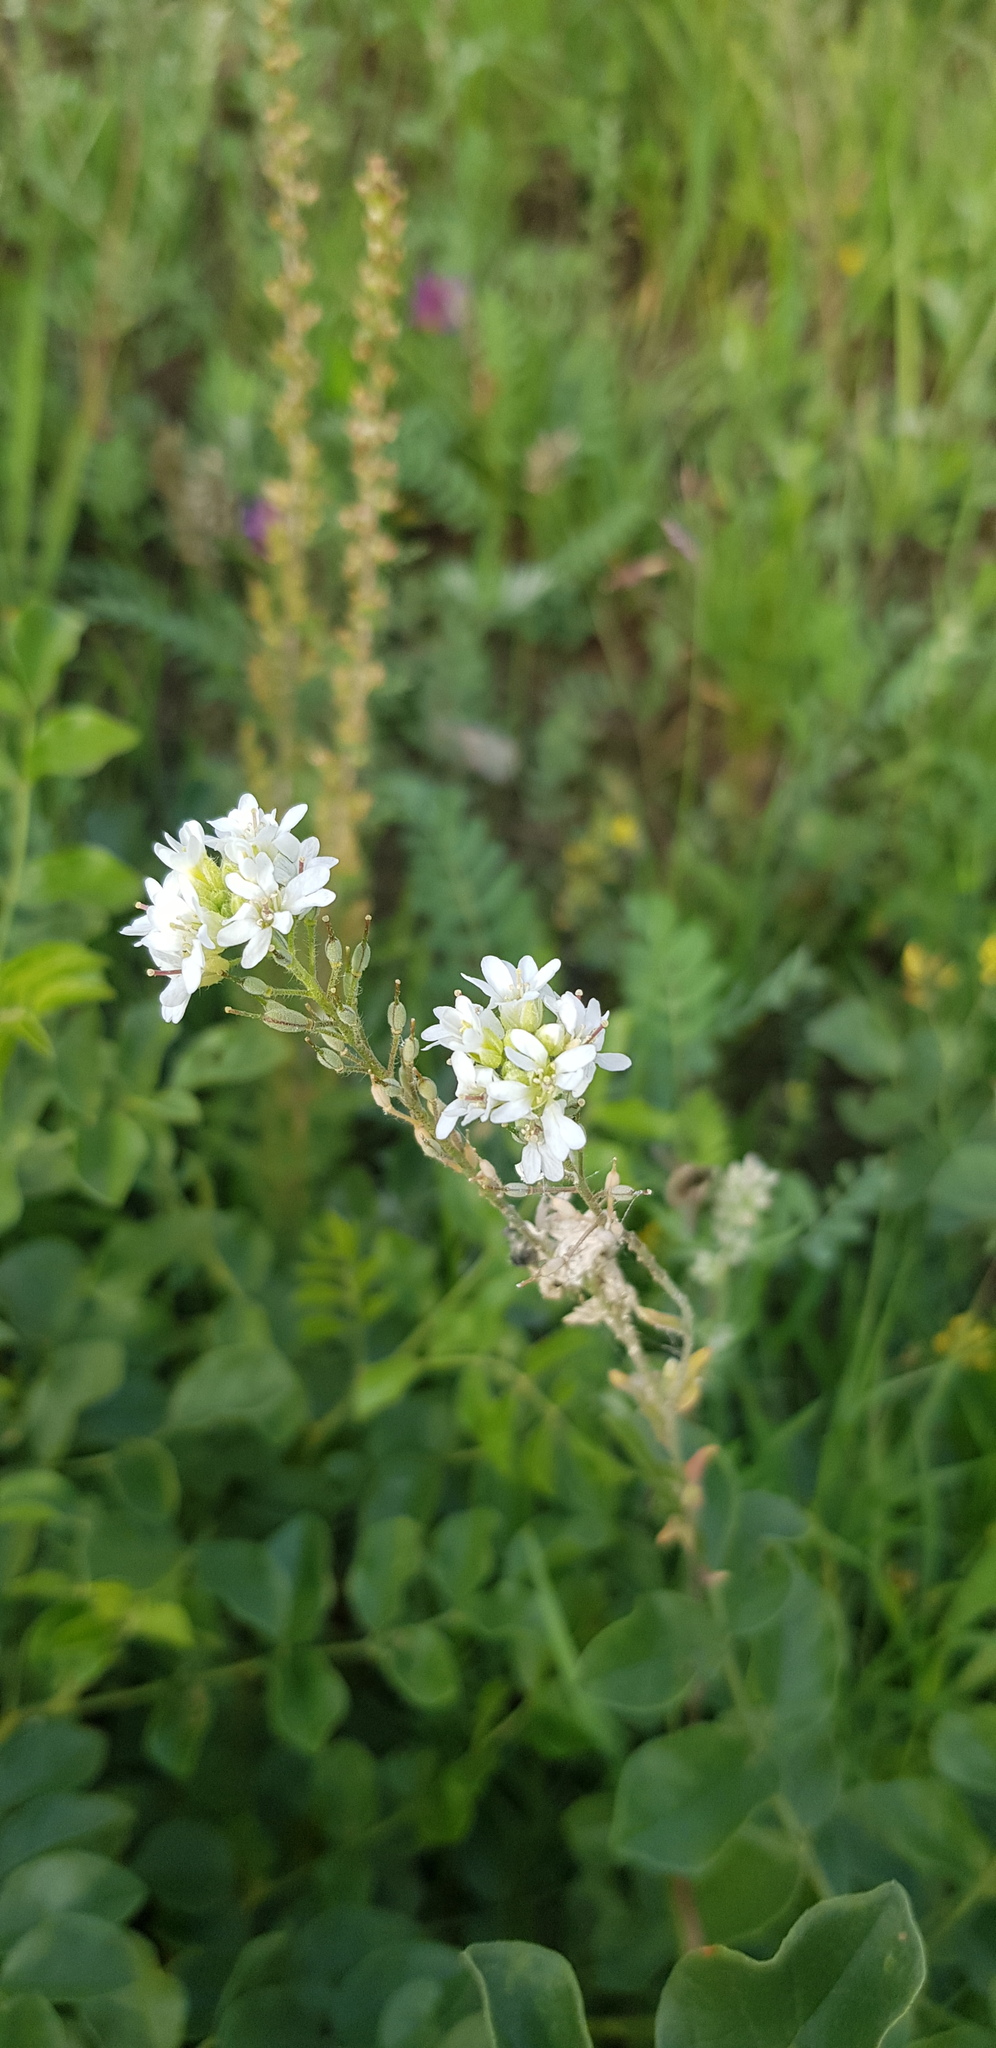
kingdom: Plantae
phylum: Tracheophyta
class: Magnoliopsida
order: Brassicales
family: Brassicaceae
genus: Berteroa
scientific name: Berteroa incana
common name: Hoary alison
